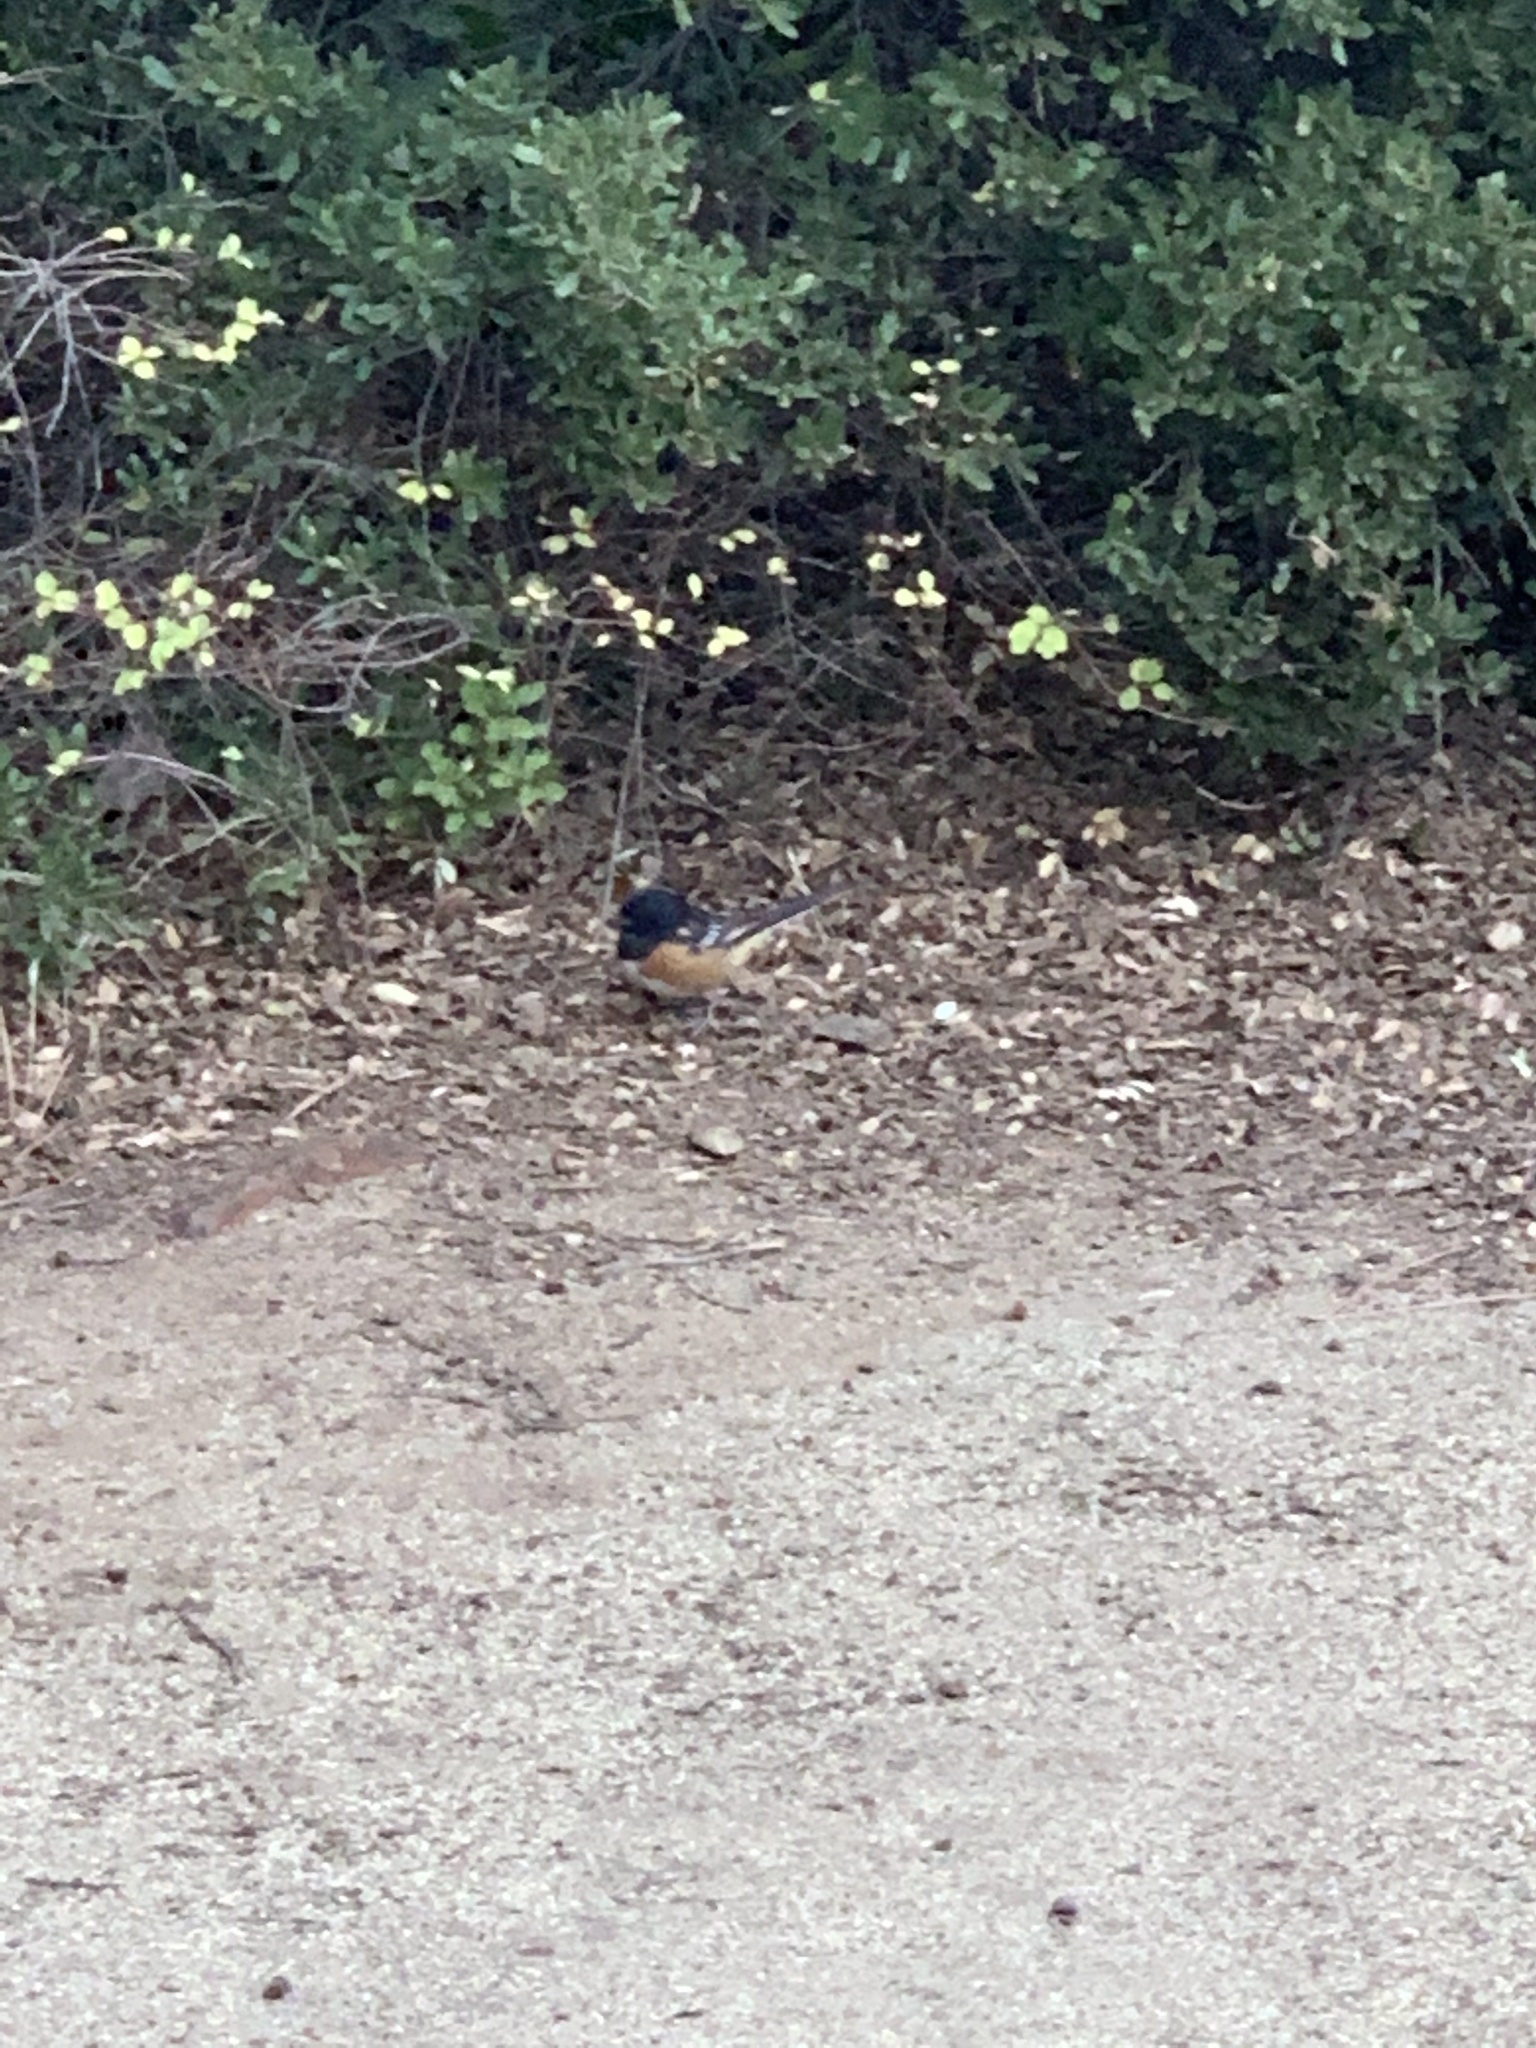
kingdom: Animalia
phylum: Chordata
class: Aves
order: Passeriformes
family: Passerellidae
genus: Pipilo
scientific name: Pipilo maculatus
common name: Spotted towhee
